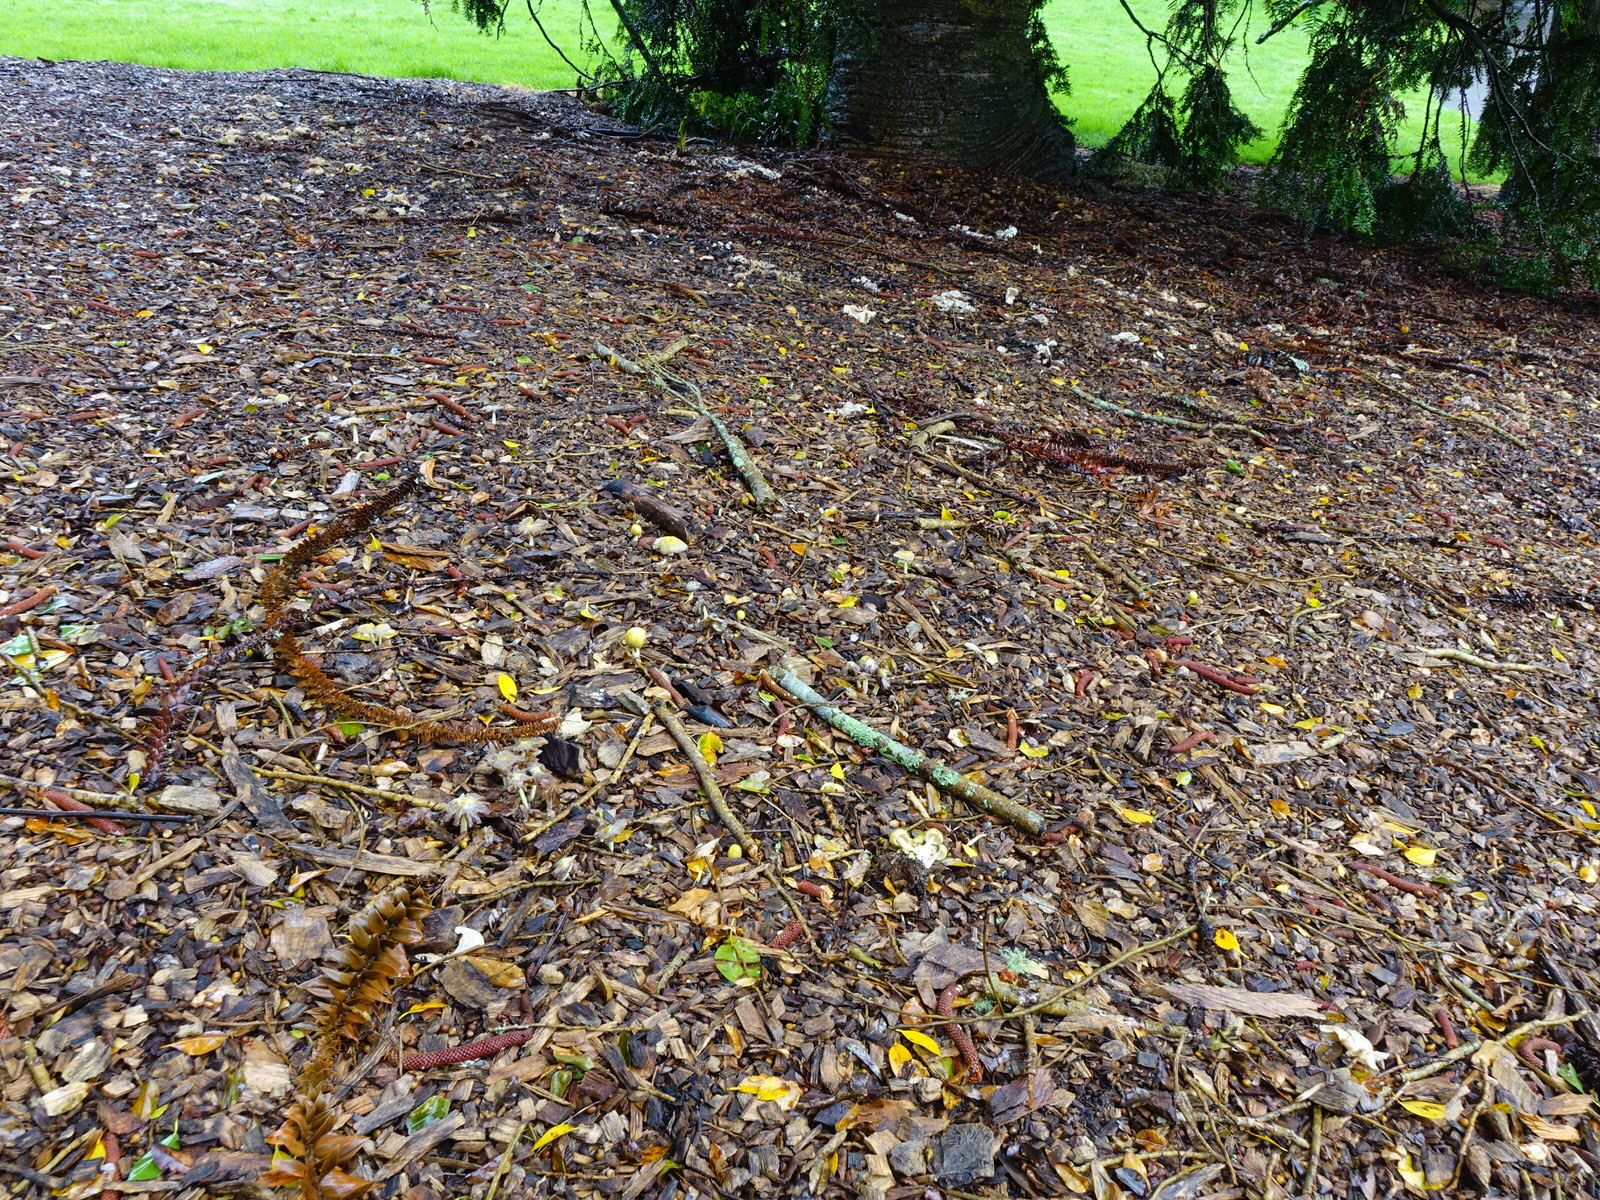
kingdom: Fungi
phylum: Basidiomycota
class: Agaricomycetes
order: Agaricales
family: Bolbitiaceae
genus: Bolbitius
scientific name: Bolbitius titubans
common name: Yellow fieldcap
